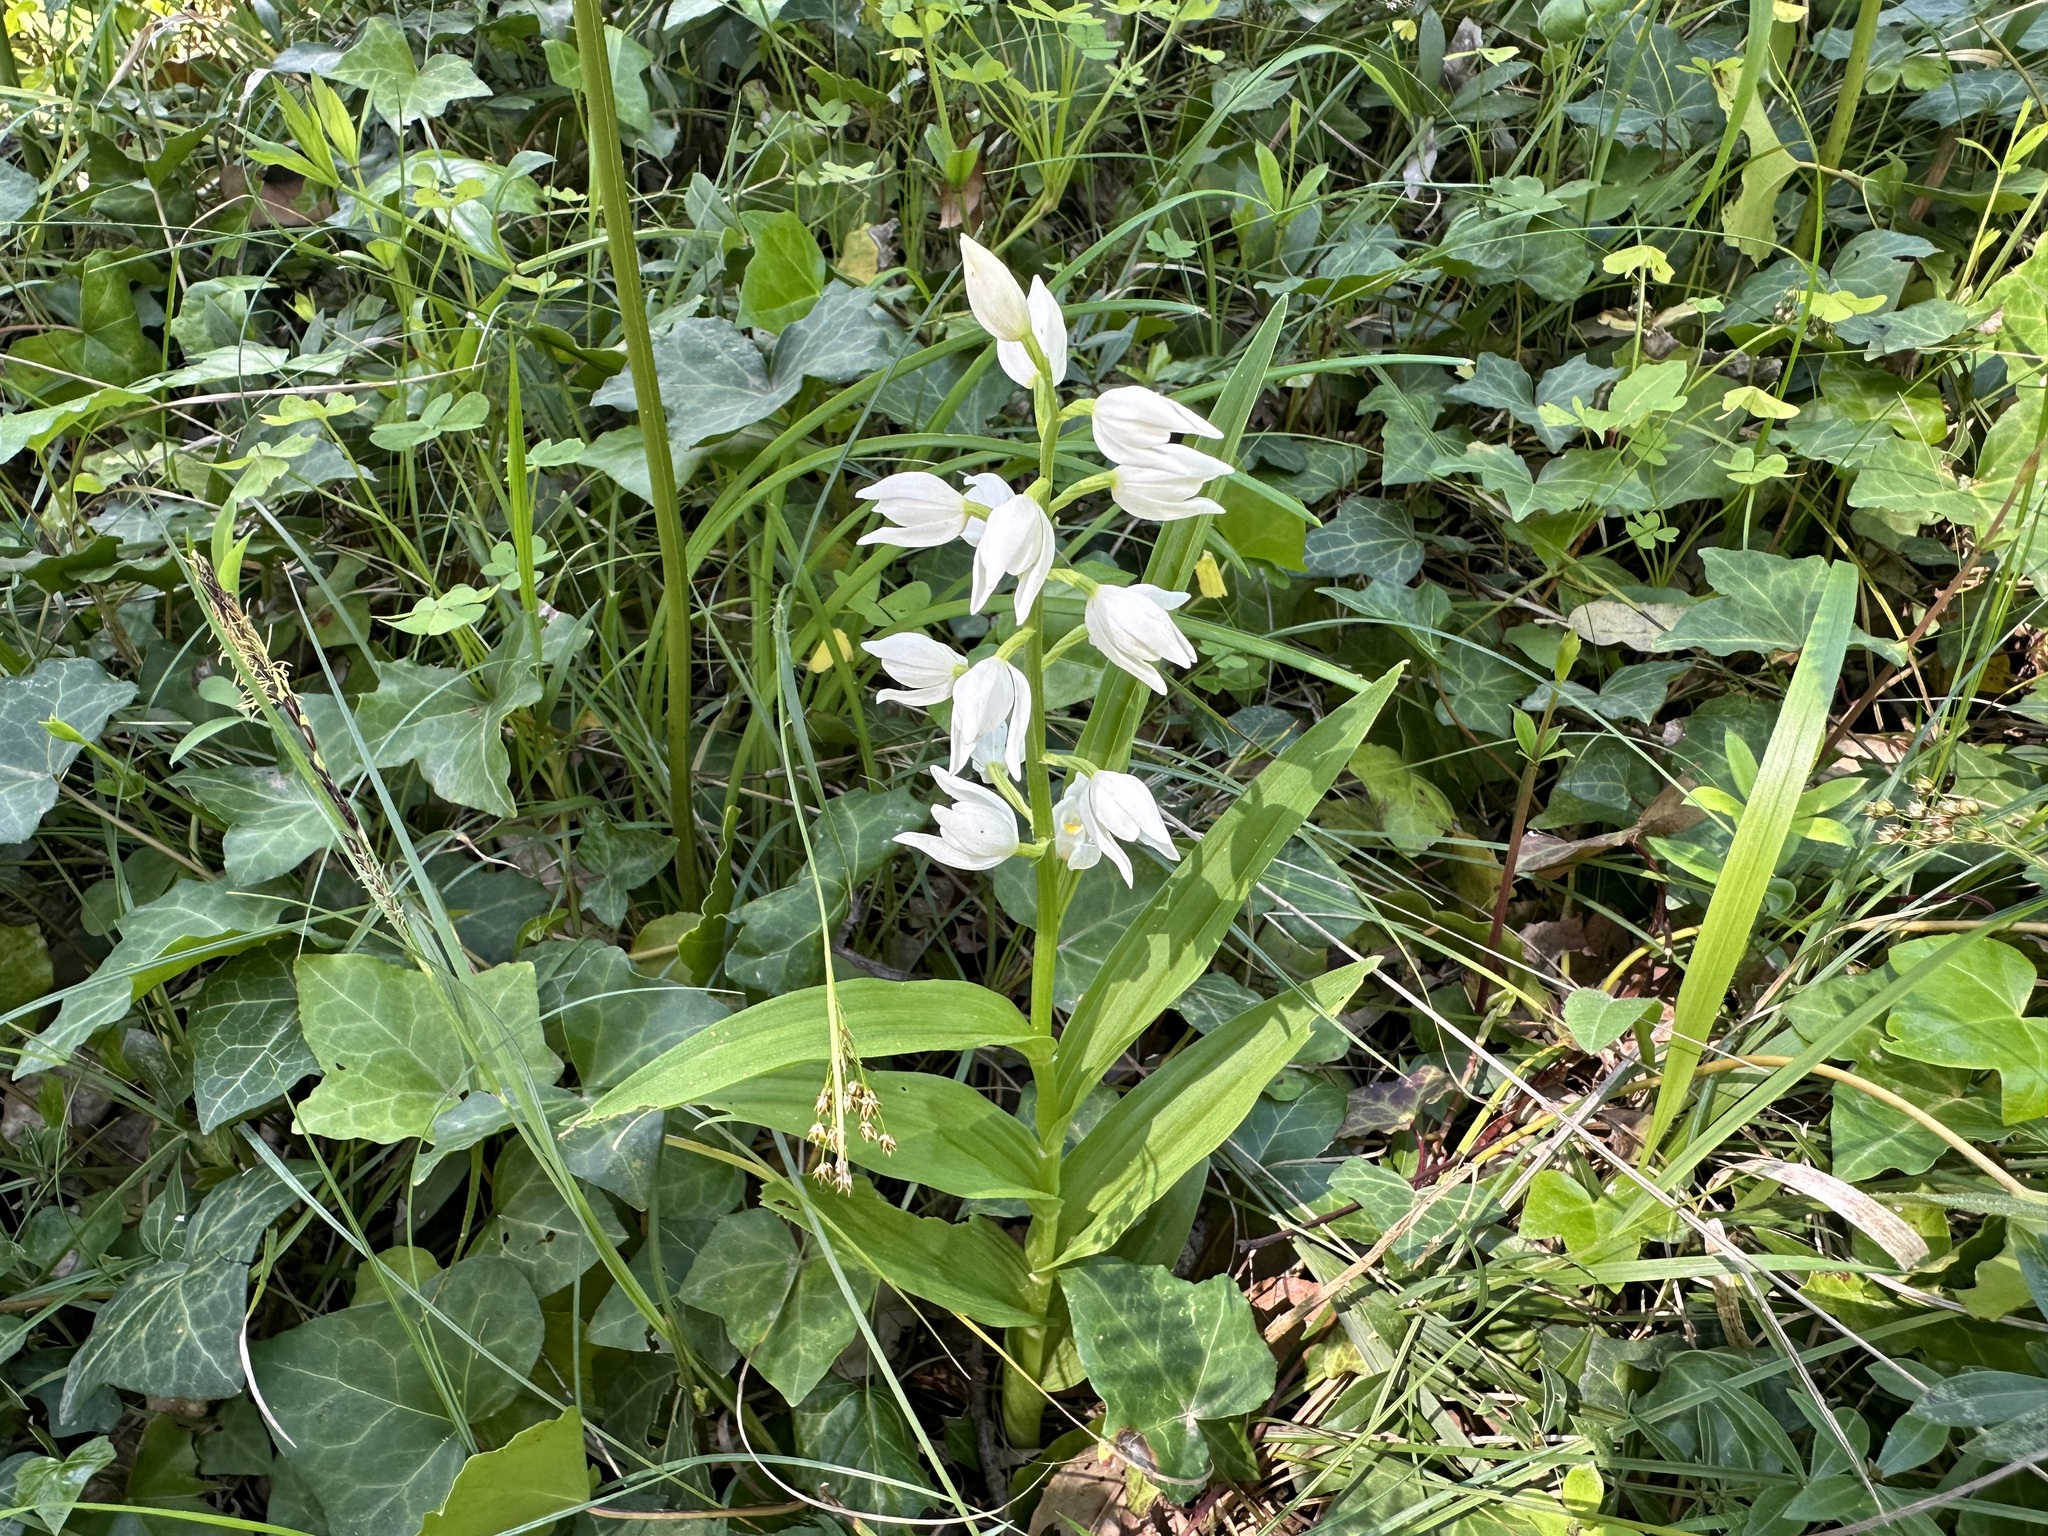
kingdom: Plantae
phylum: Tracheophyta
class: Liliopsida
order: Asparagales
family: Orchidaceae
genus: Cephalanthera
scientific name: Cephalanthera longifolia
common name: Narrow-leaved helleborine
